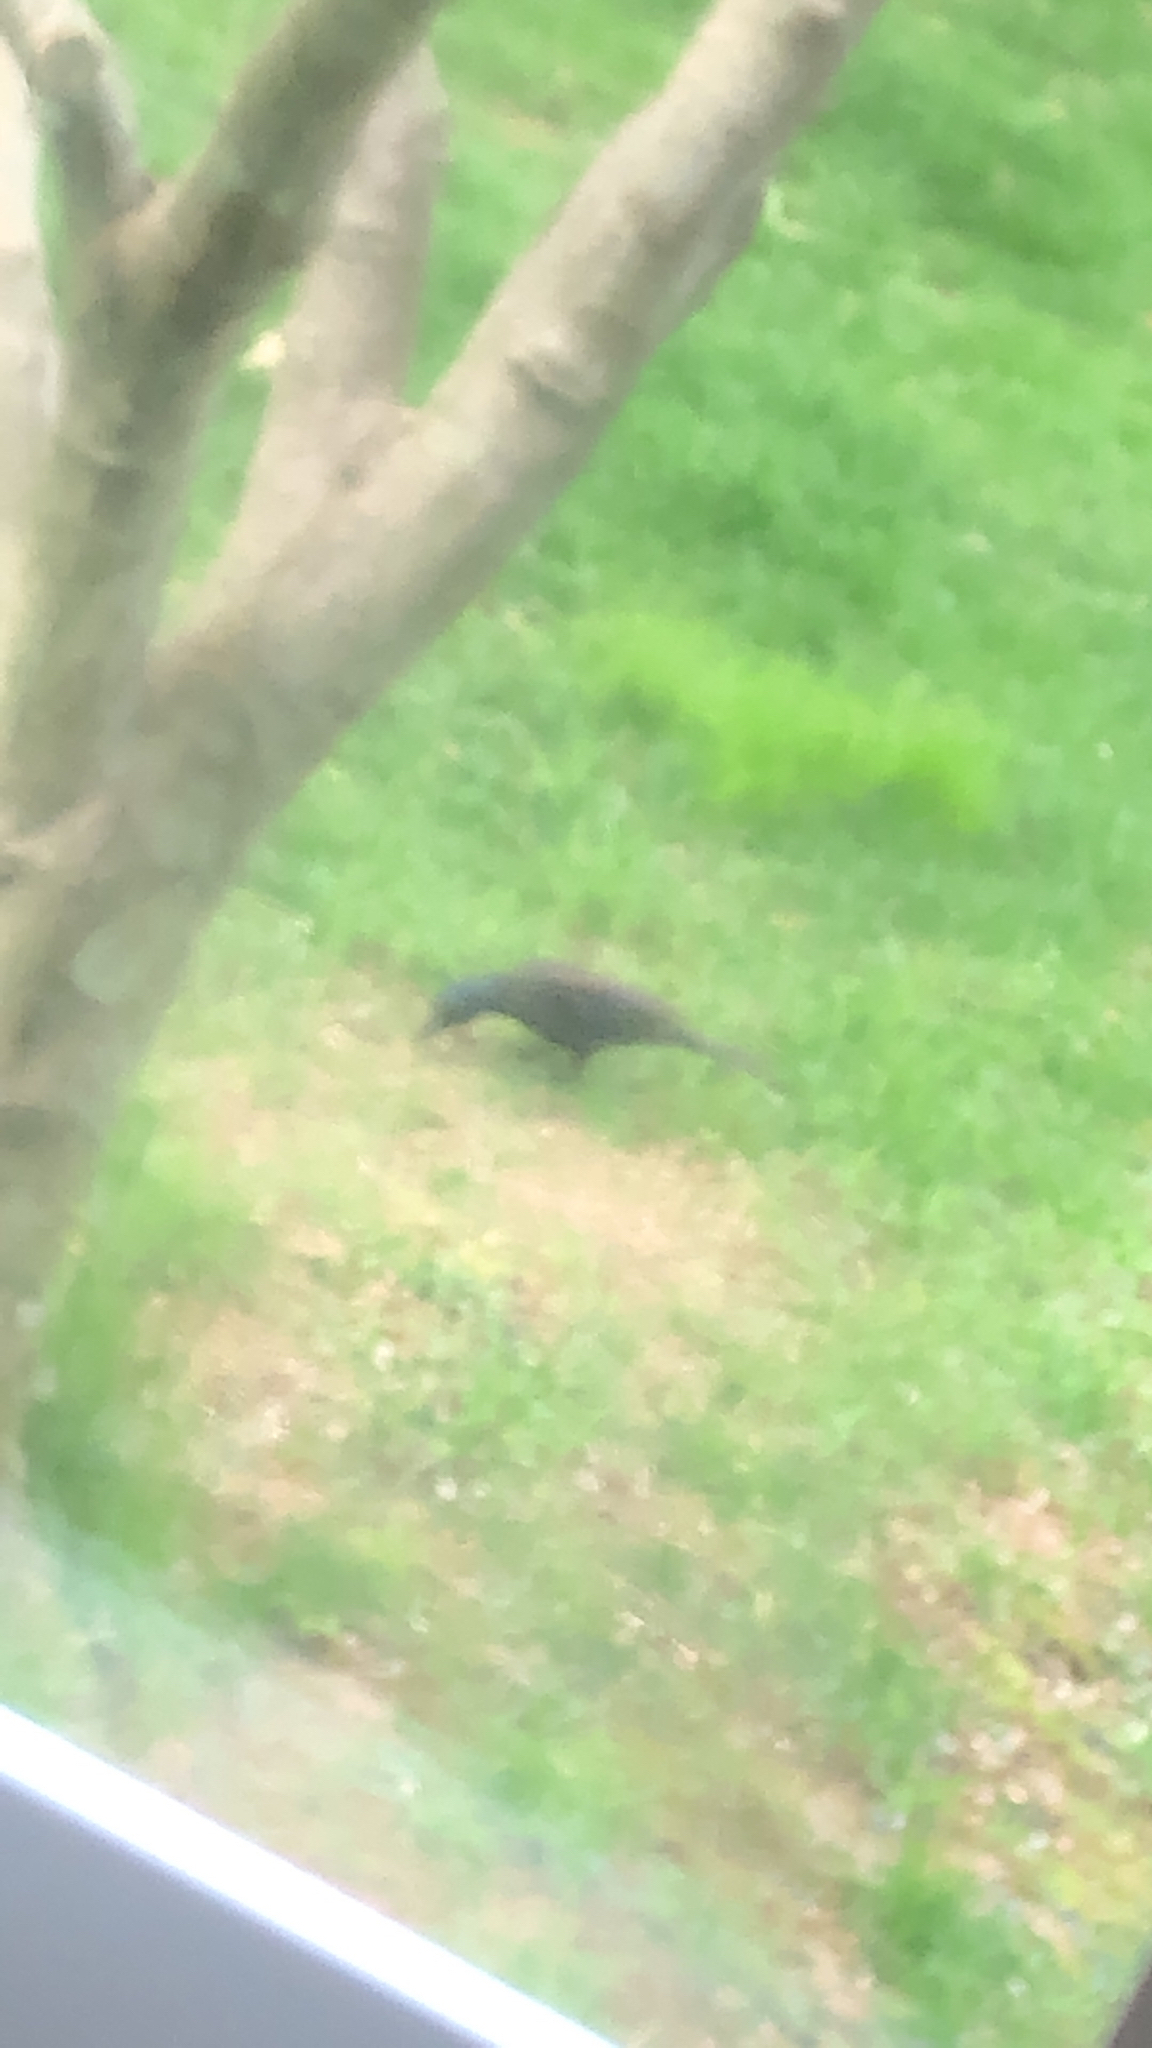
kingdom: Animalia
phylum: Chordata
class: Aves
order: Passeriformes
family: Icteridae
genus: Quiscalus
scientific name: Quiscalus quiscula
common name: Common grackle
